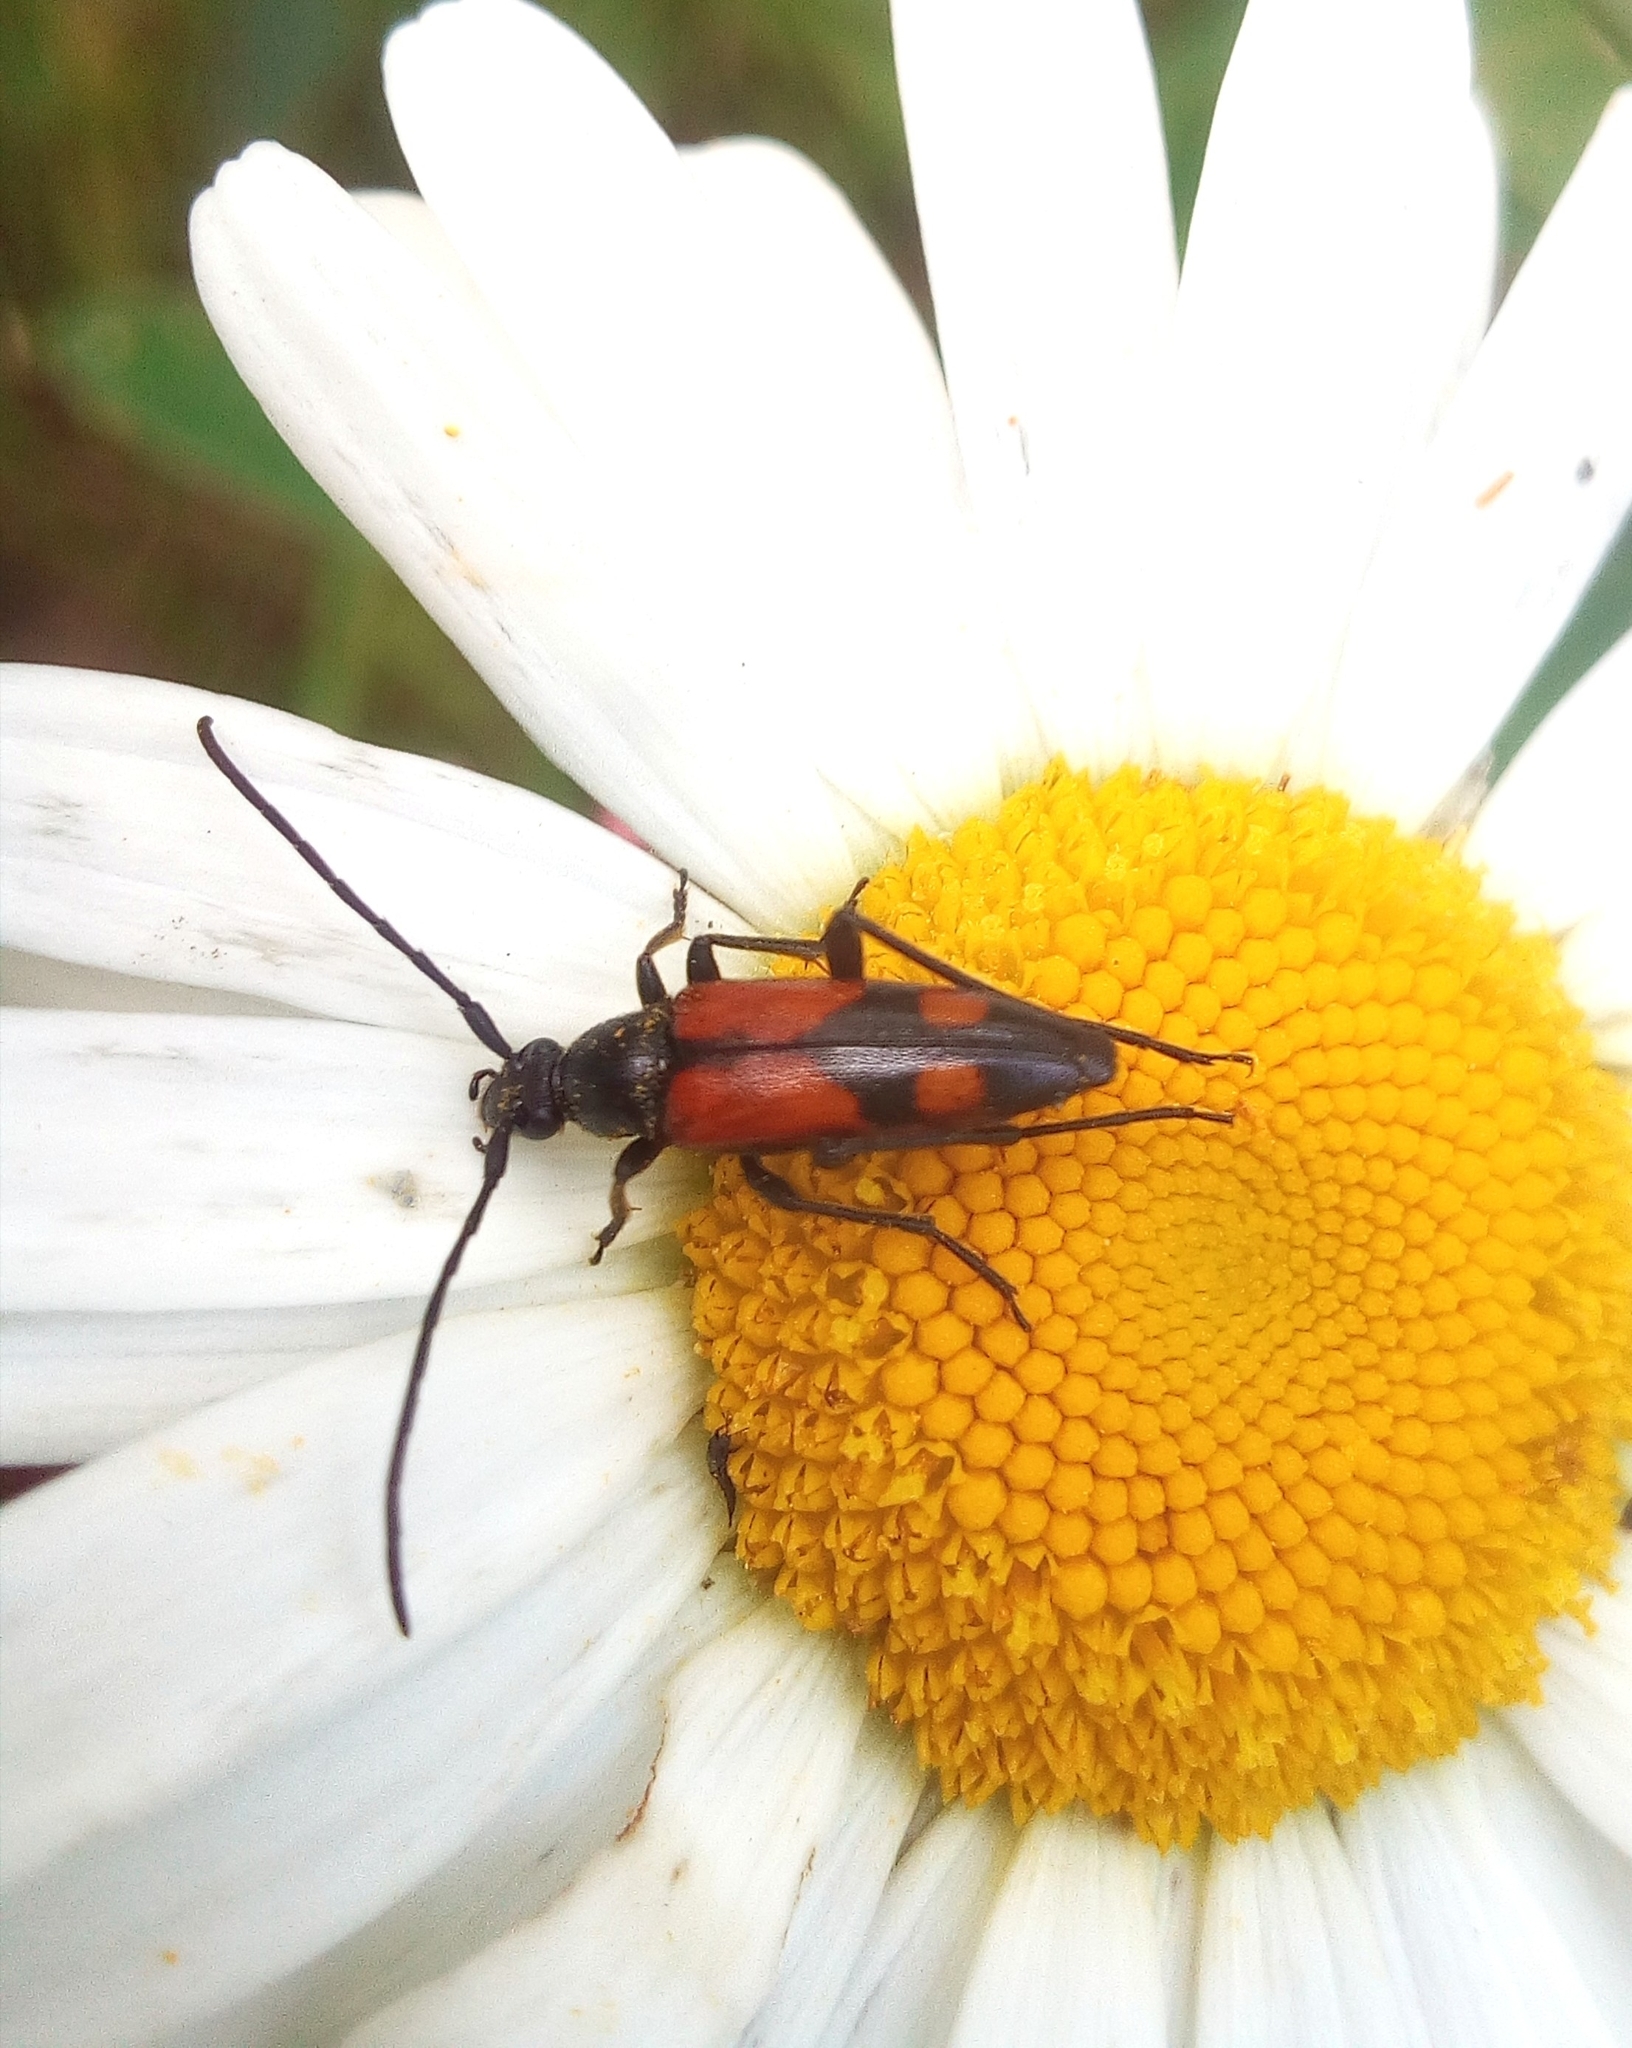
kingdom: Animalia
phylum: Arthropoda
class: Insecta
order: Coleoptera
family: Cerambycidae
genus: Stenurella
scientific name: Stenurella bifasciata
